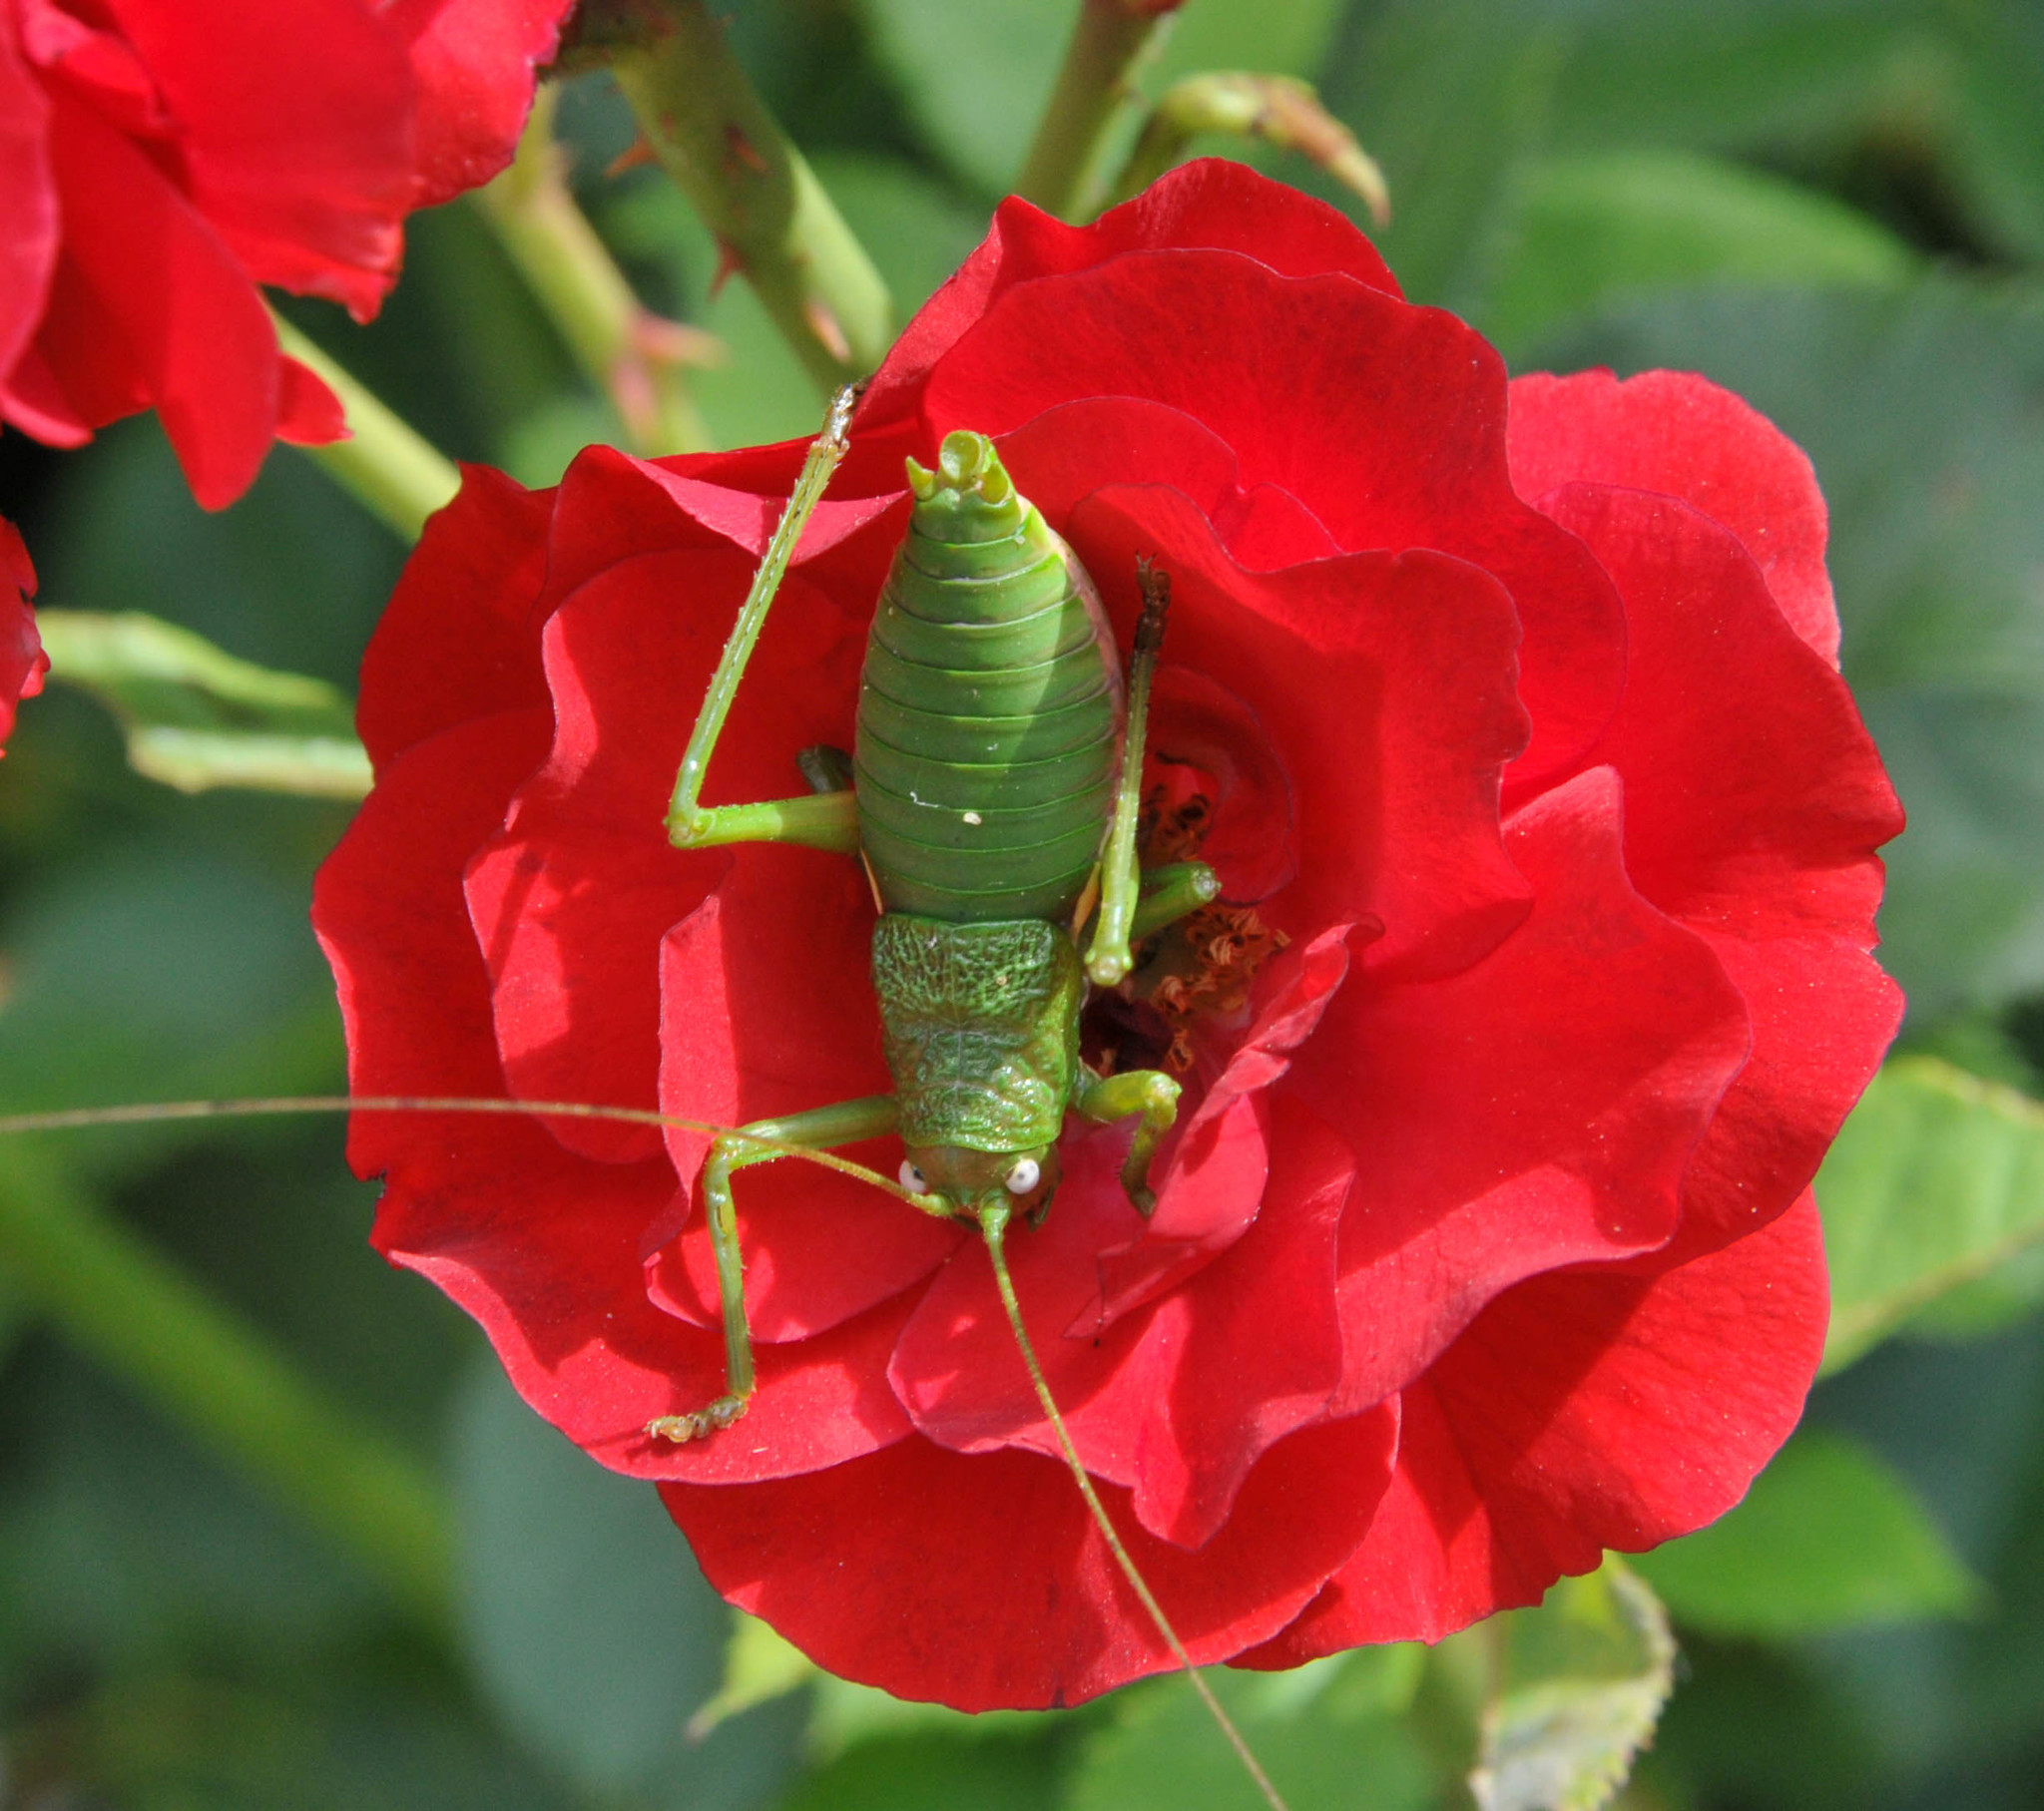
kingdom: Animalia
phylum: Arthropoda
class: Insecta
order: Orthoptera
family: Tettigoniidae
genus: Uromenus
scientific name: Uromenus rugosicollis
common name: Rough saddle bush-cricket
